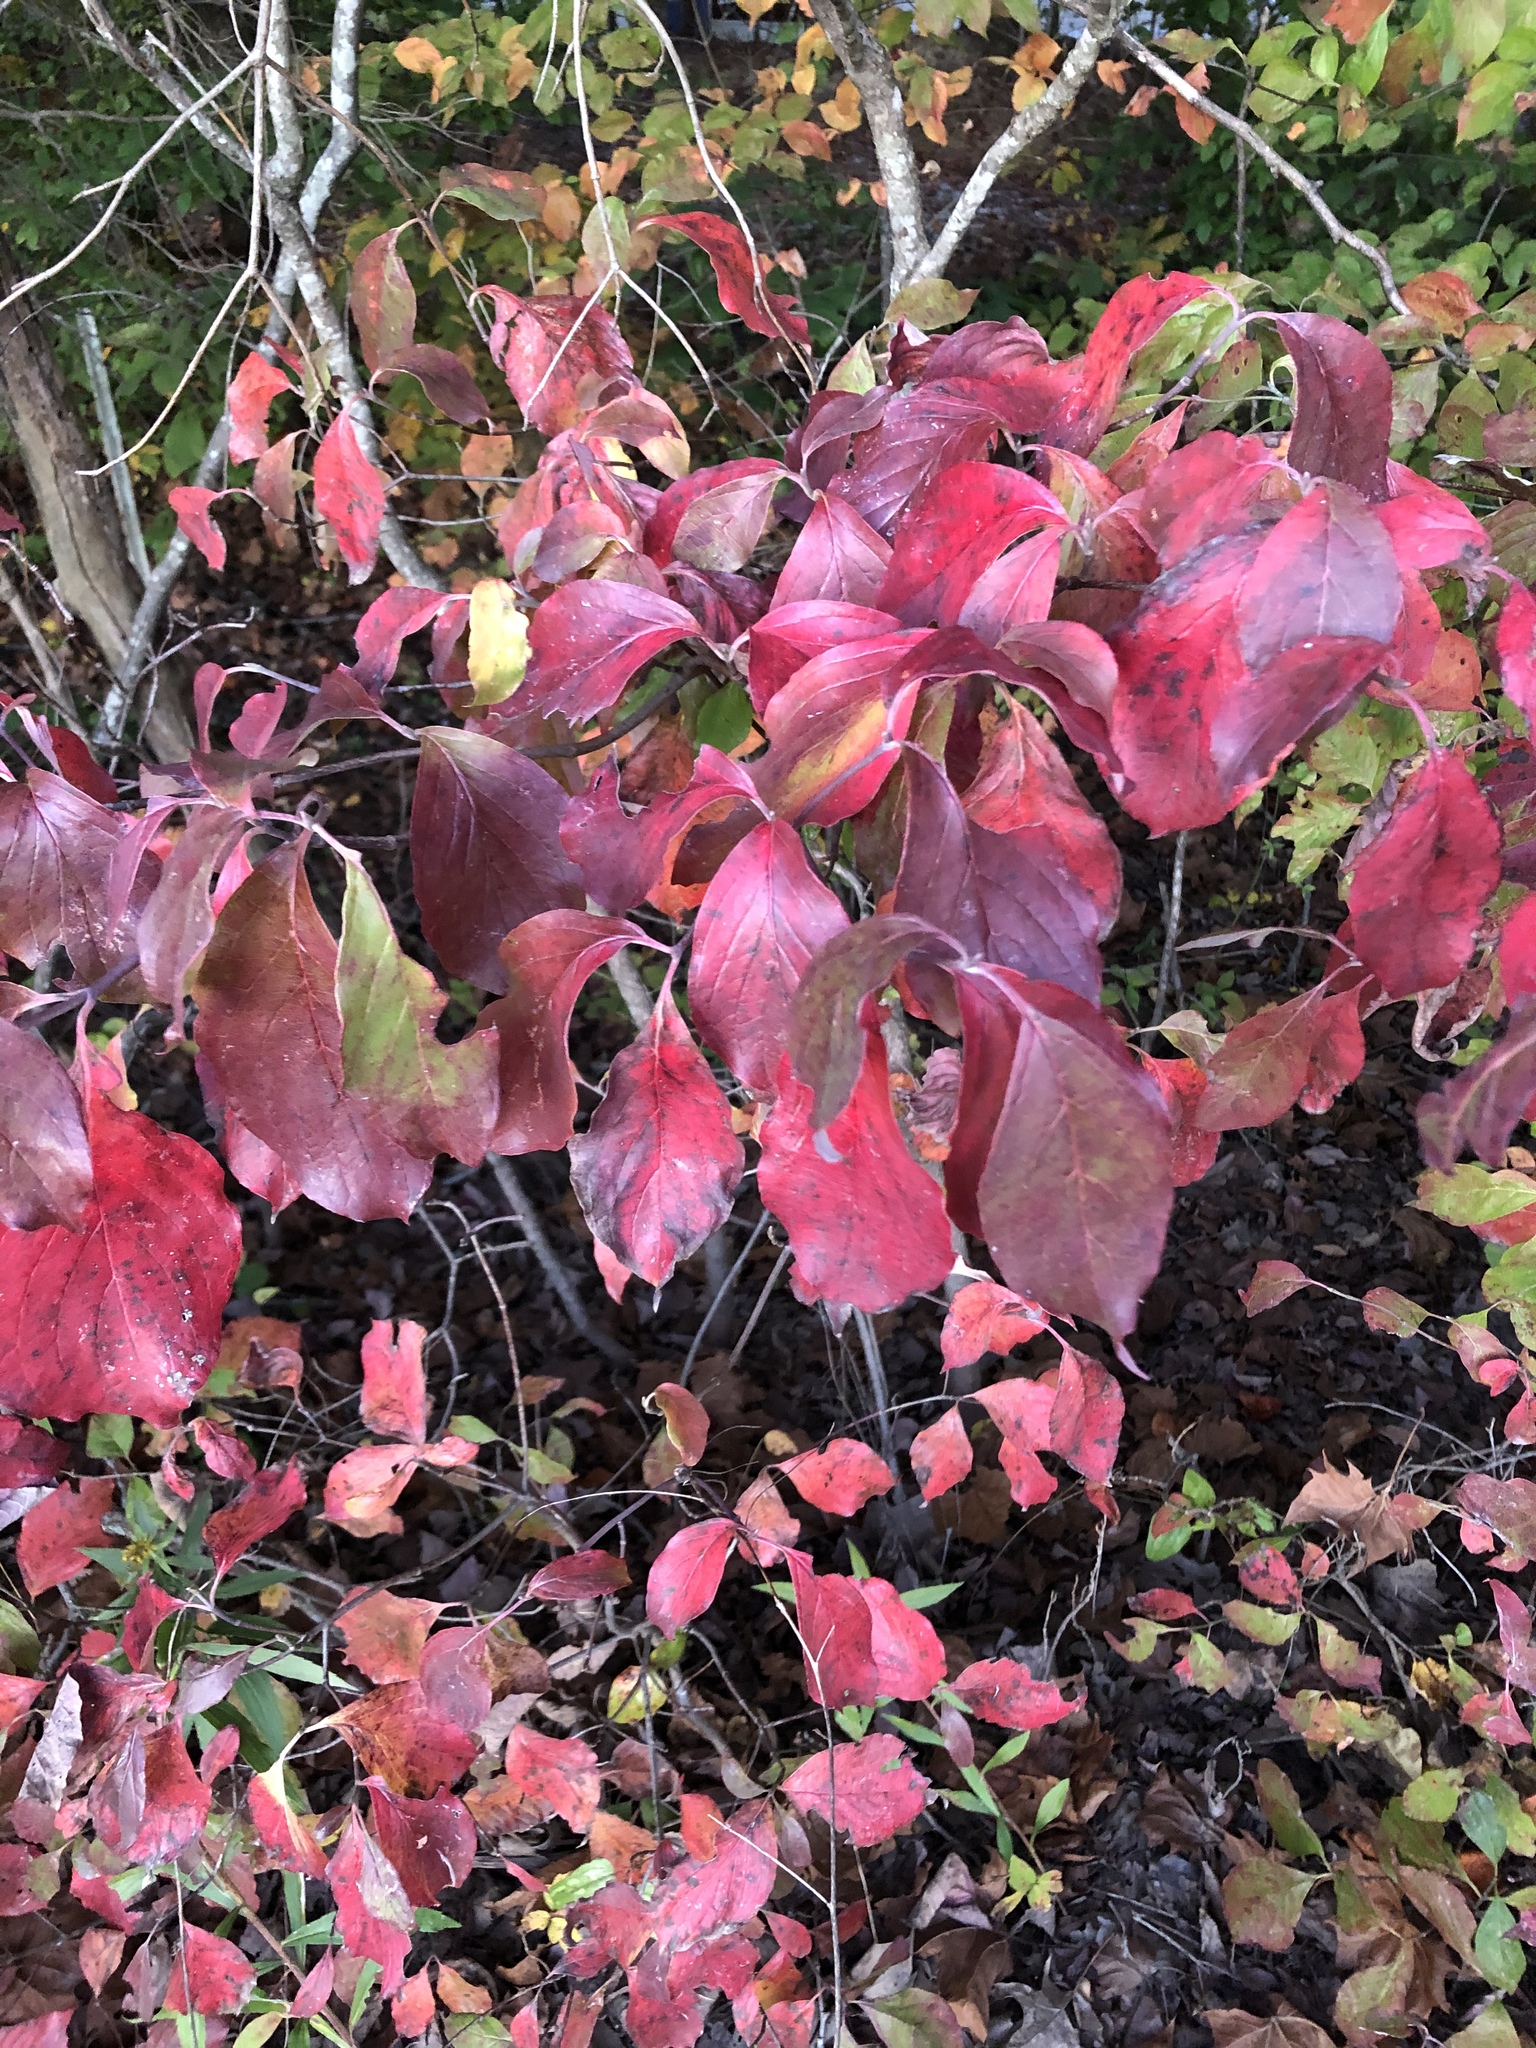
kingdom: Plantae
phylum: Tracheophyta
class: Magnoliopsida
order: Cornales
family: Cornaceae
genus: Cornus
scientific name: Cornus florida
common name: Flowering dogwood
